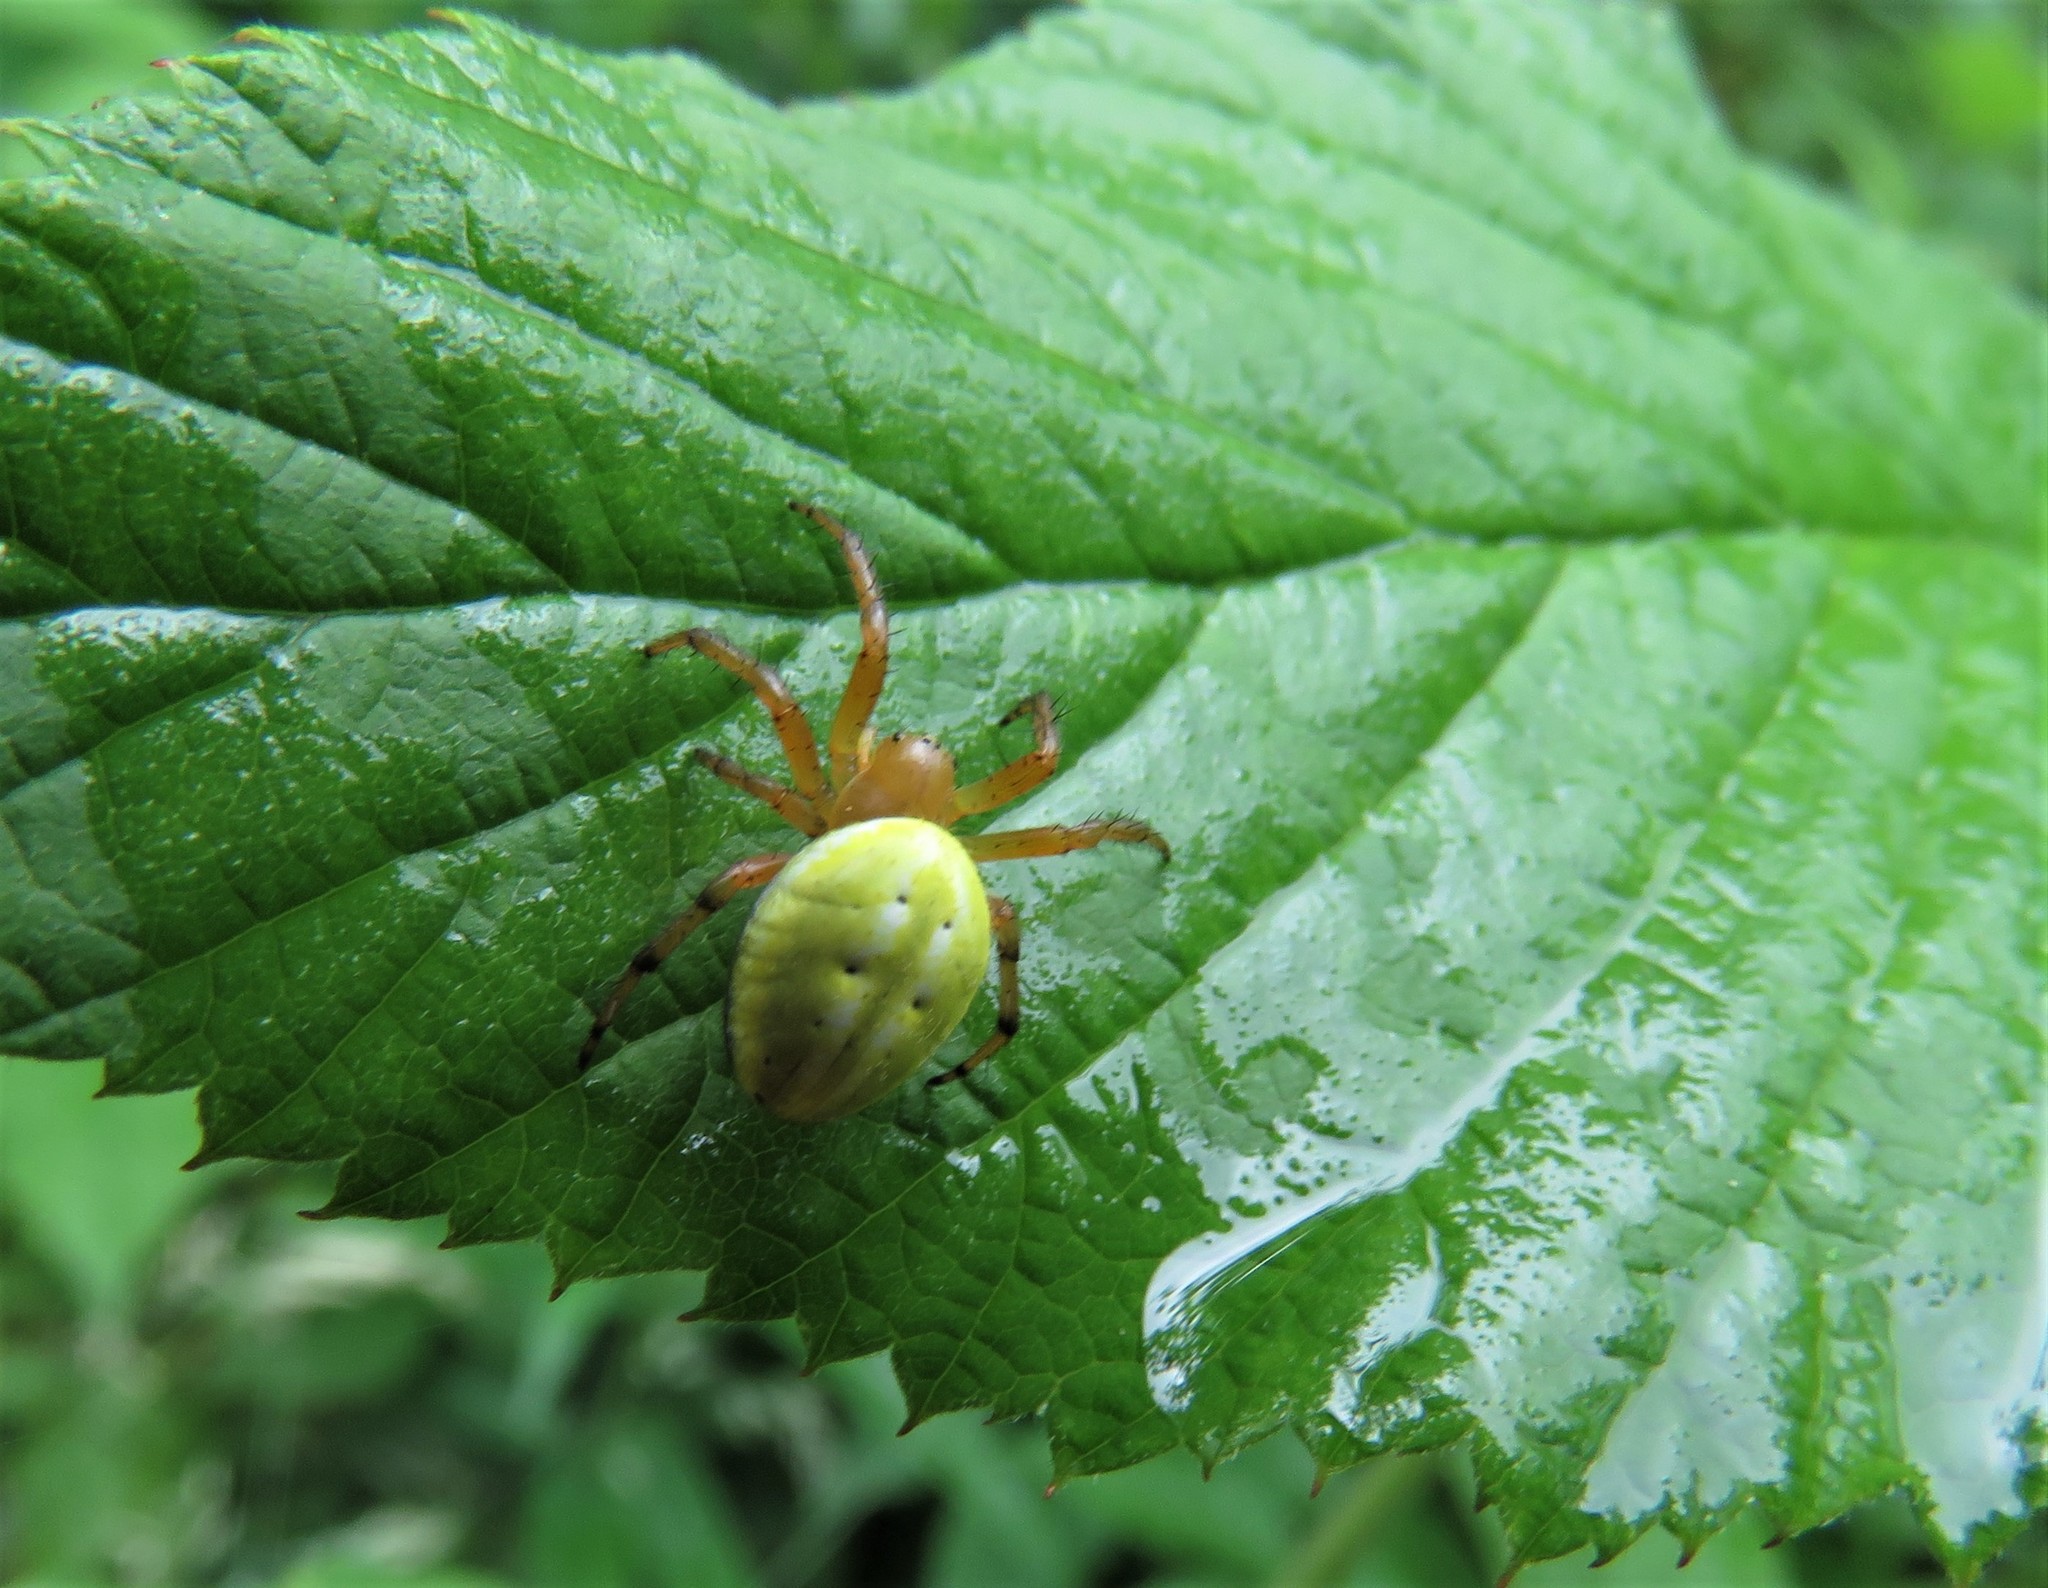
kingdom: Animalia
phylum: Arthropoda
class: Arachnida
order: Araneae
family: Araneidae
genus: Araniella
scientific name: Araniella alpica
